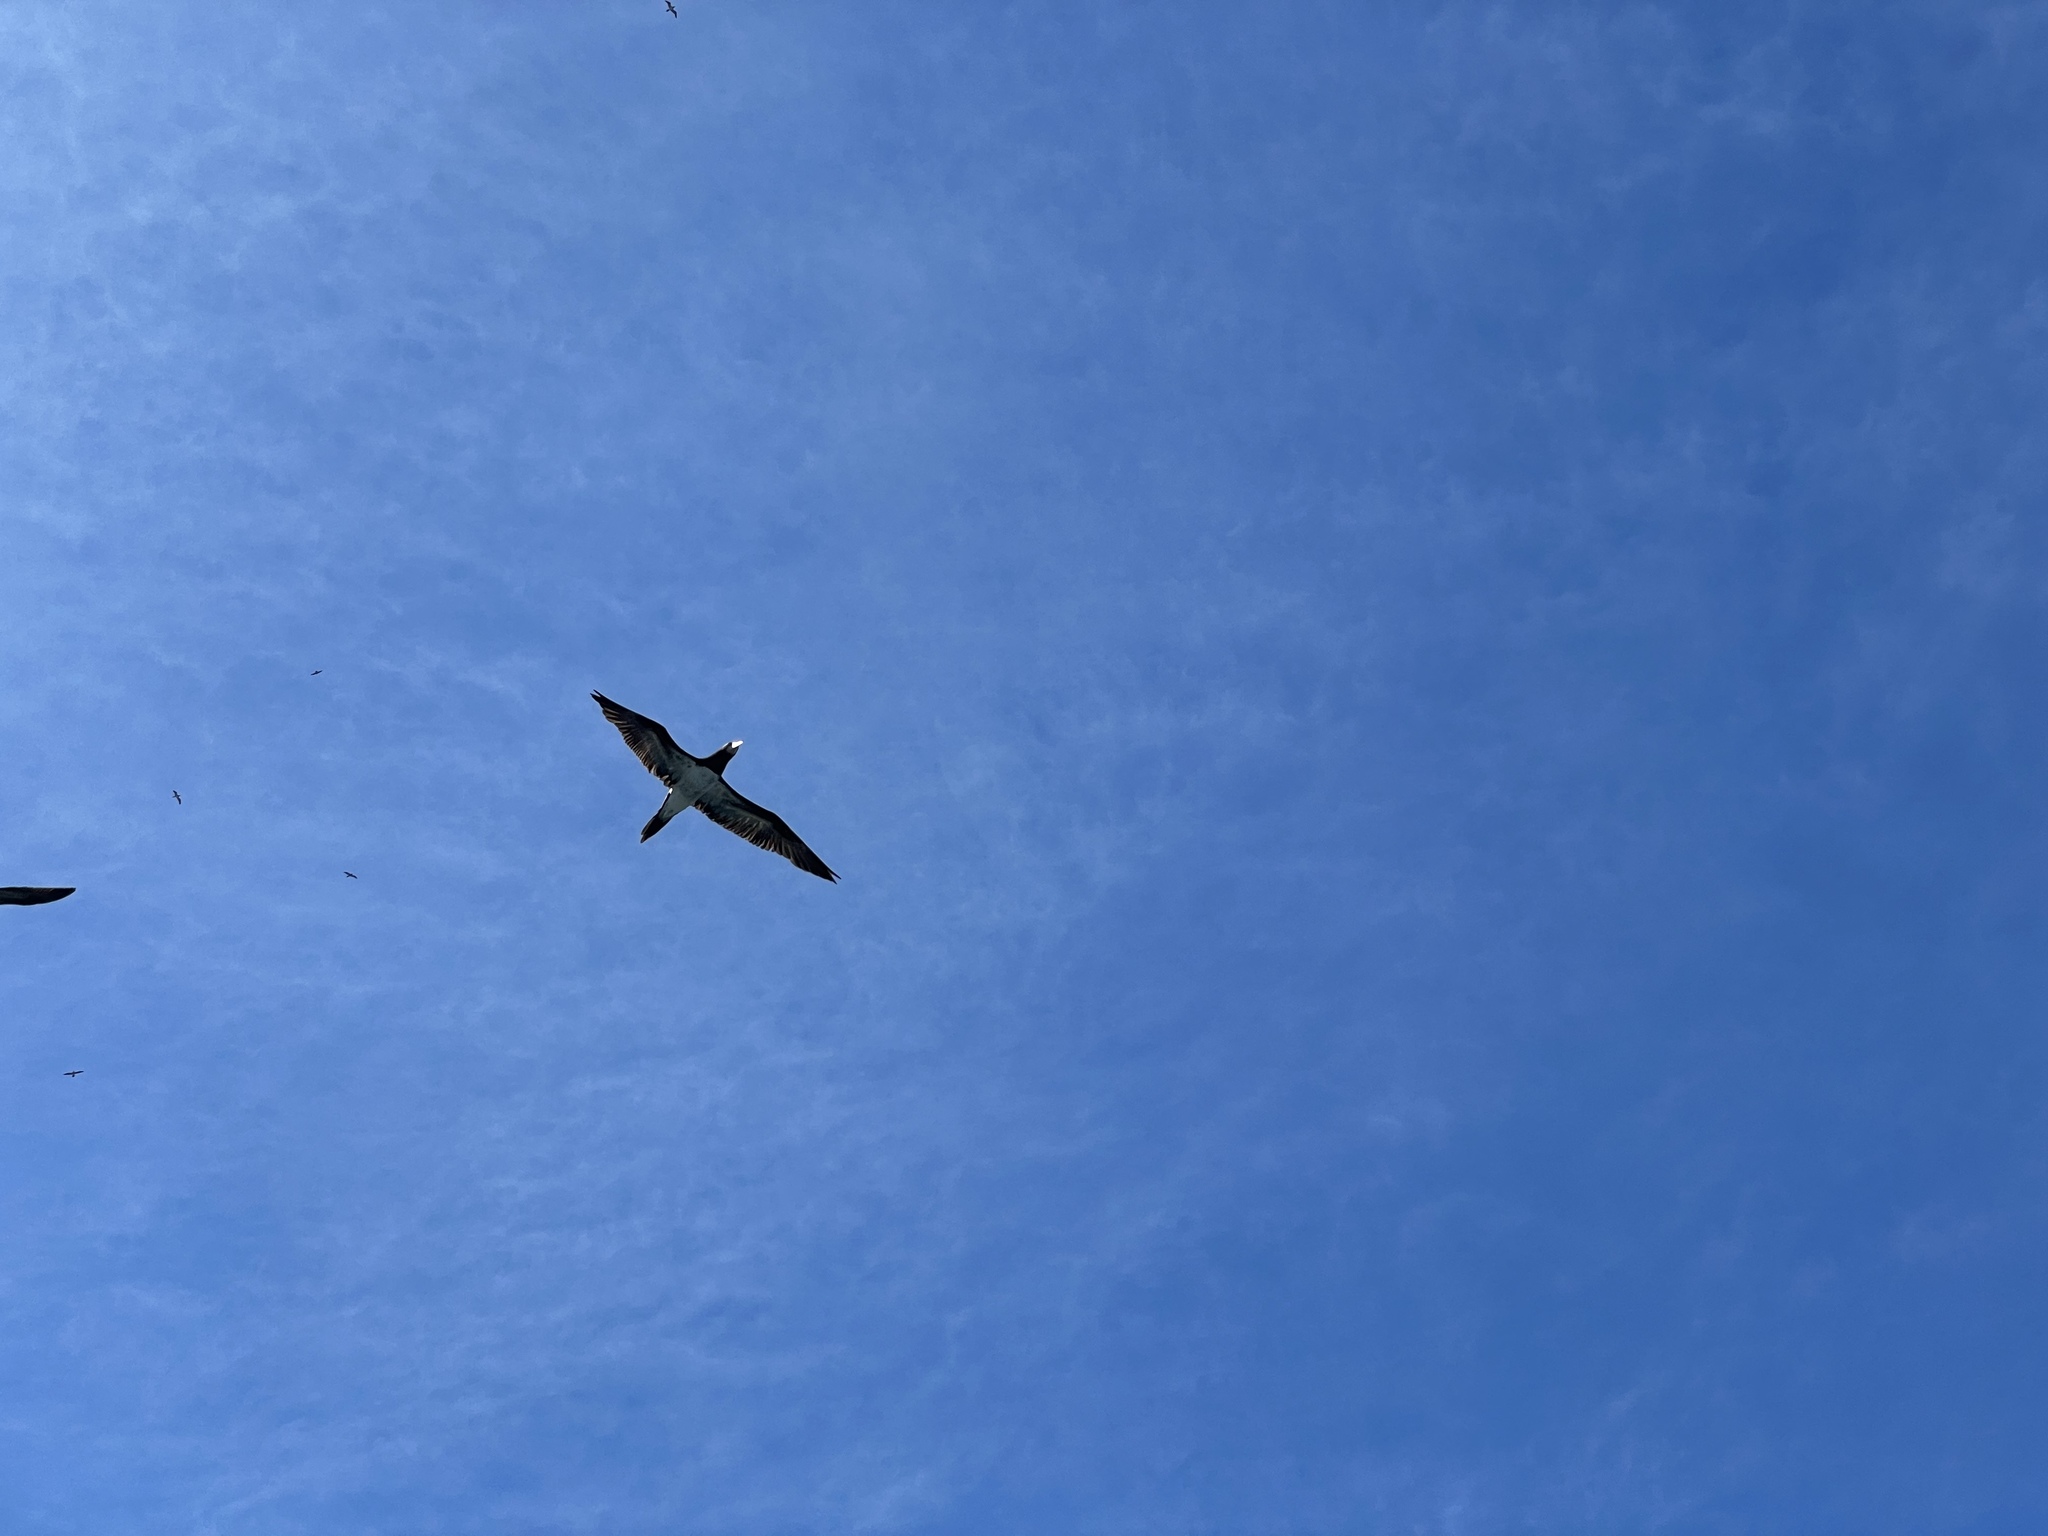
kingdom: Animalia
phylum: Chordata
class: Aves
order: Suliformes
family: Sulidae
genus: Sula
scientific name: Sula leucogaster
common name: Brown booby
